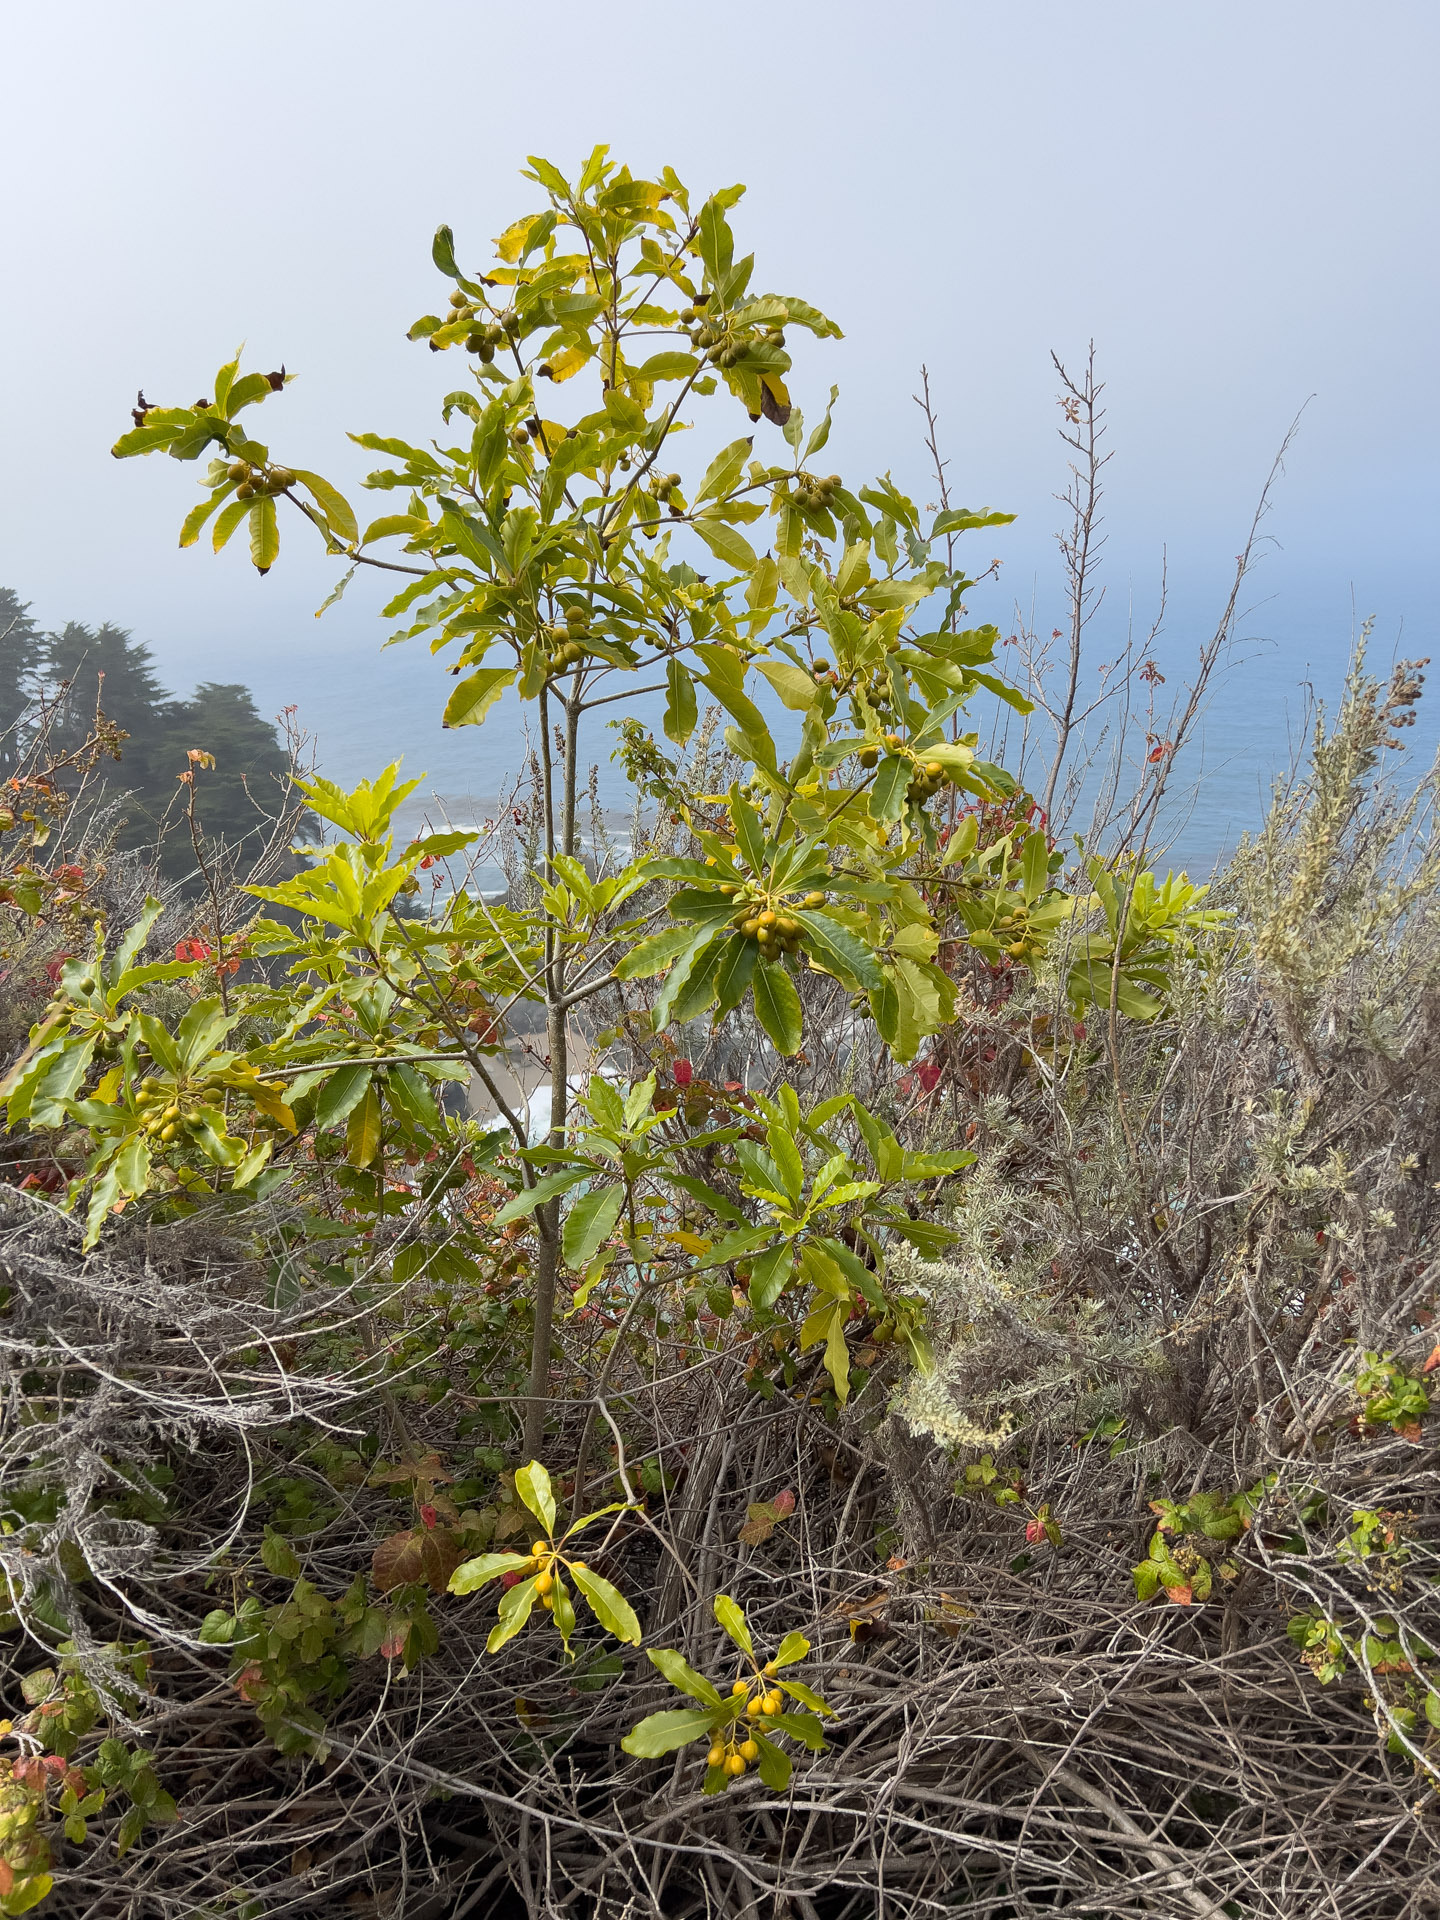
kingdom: Plantae
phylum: Tracheophyta
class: Magnoliopsida
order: Apiales
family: Pittosporaceae
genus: Pittosporum
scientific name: Pittosporum undulatum
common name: Australian cheesewood
